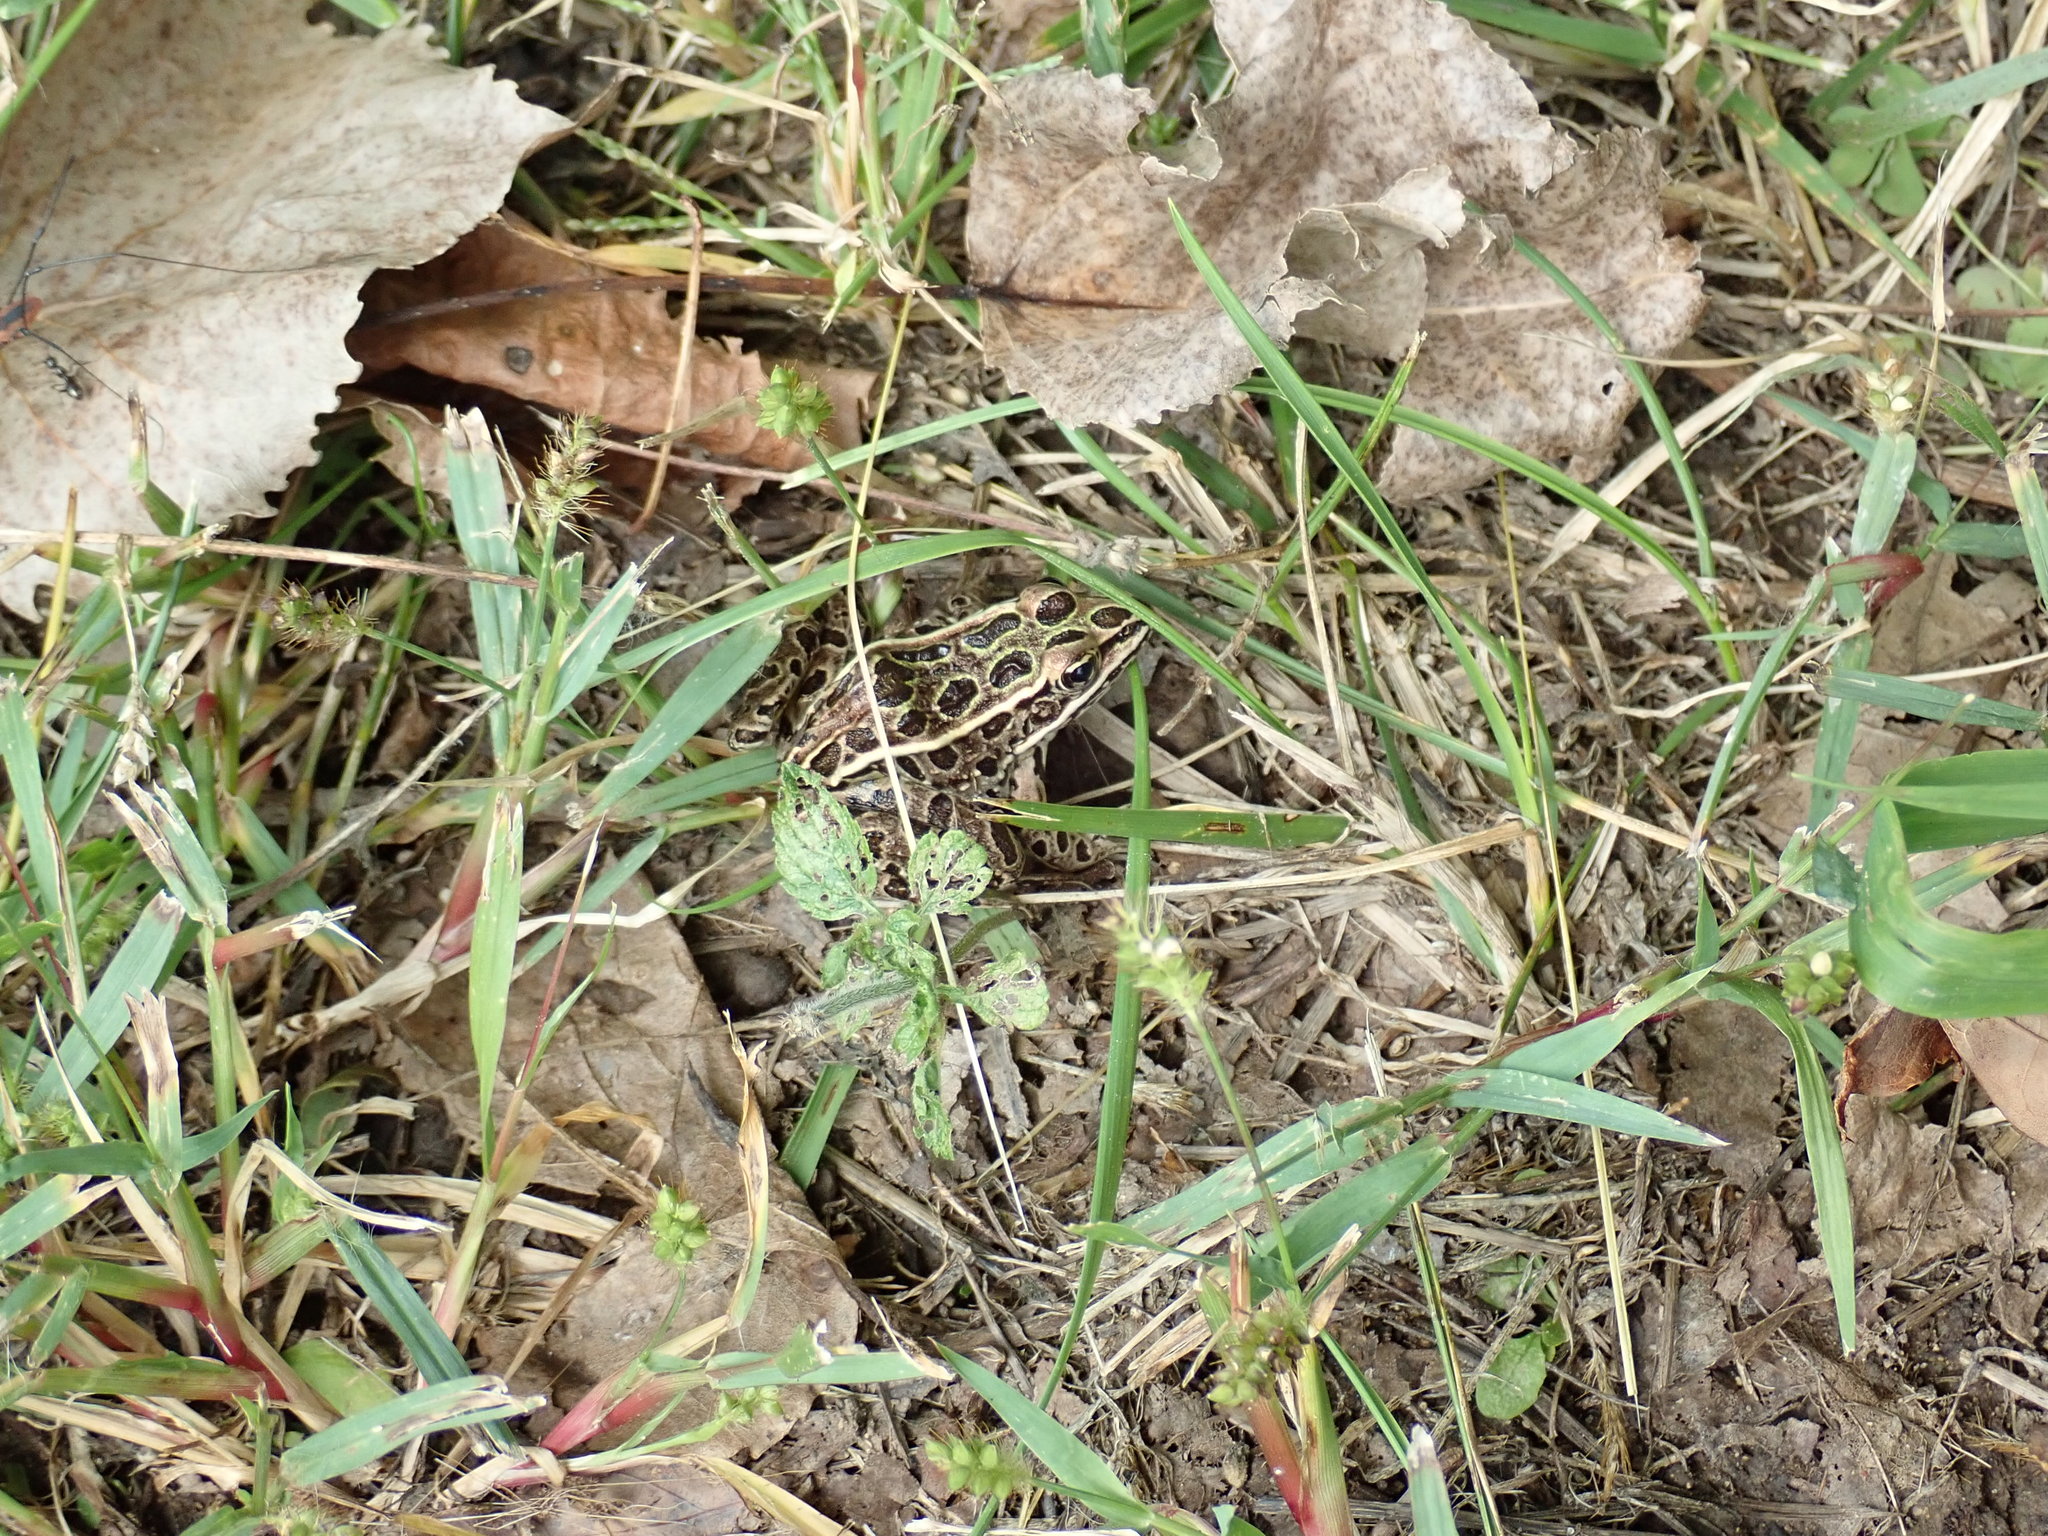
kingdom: Animalia
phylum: Chordata
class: Amphibia
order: Anura
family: Ranidae
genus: Lithobates
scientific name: Lithobates pipiens
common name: Northern leopard frog
